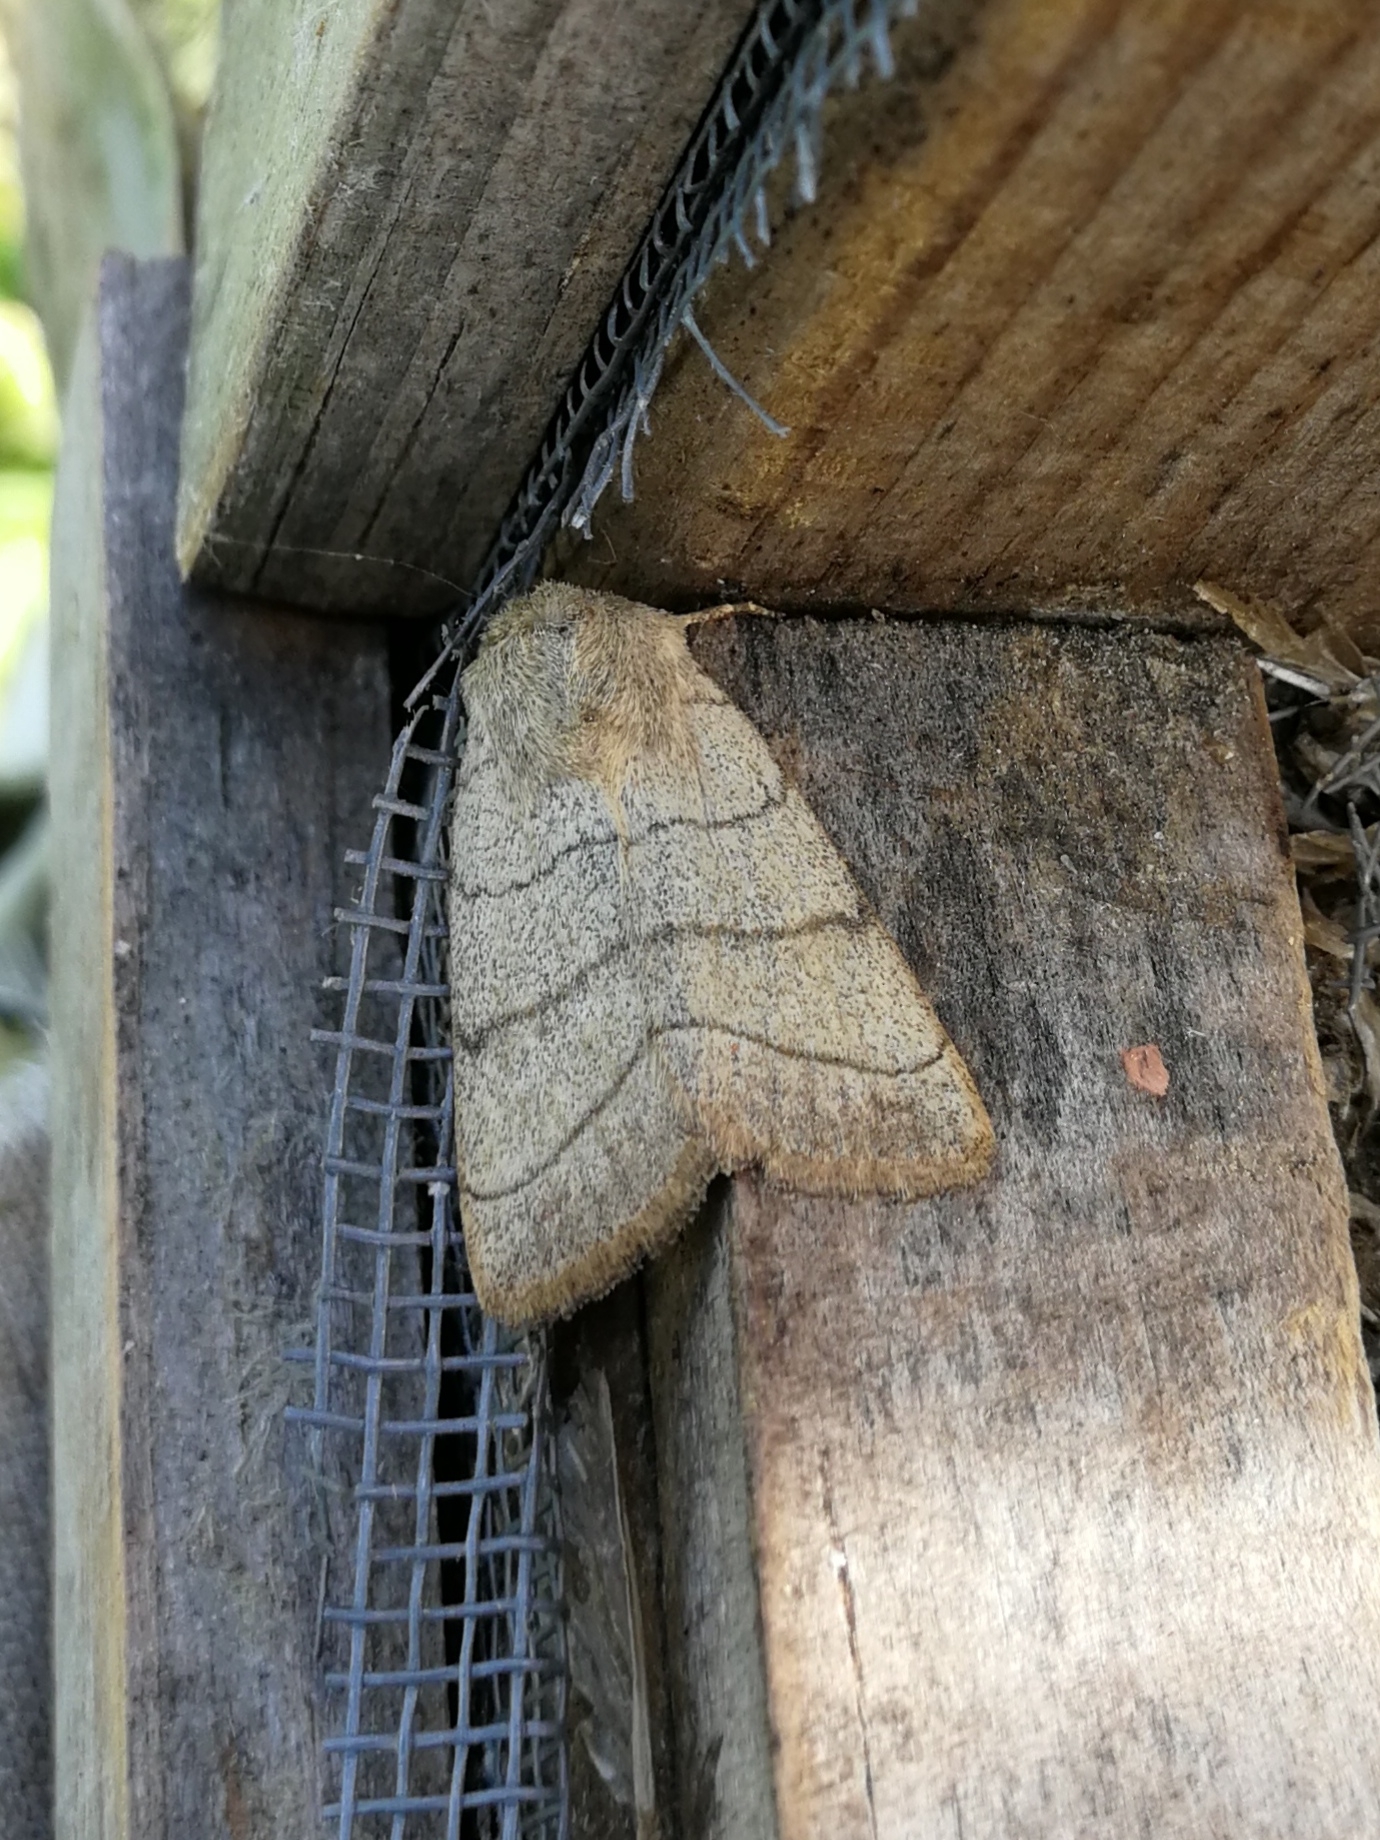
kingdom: Animalia
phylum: Arthropoda
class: Insecta
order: Lepidoptera
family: Noctuidae
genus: Charanyca
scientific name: Charanyca trigrammica
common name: Treble lines
